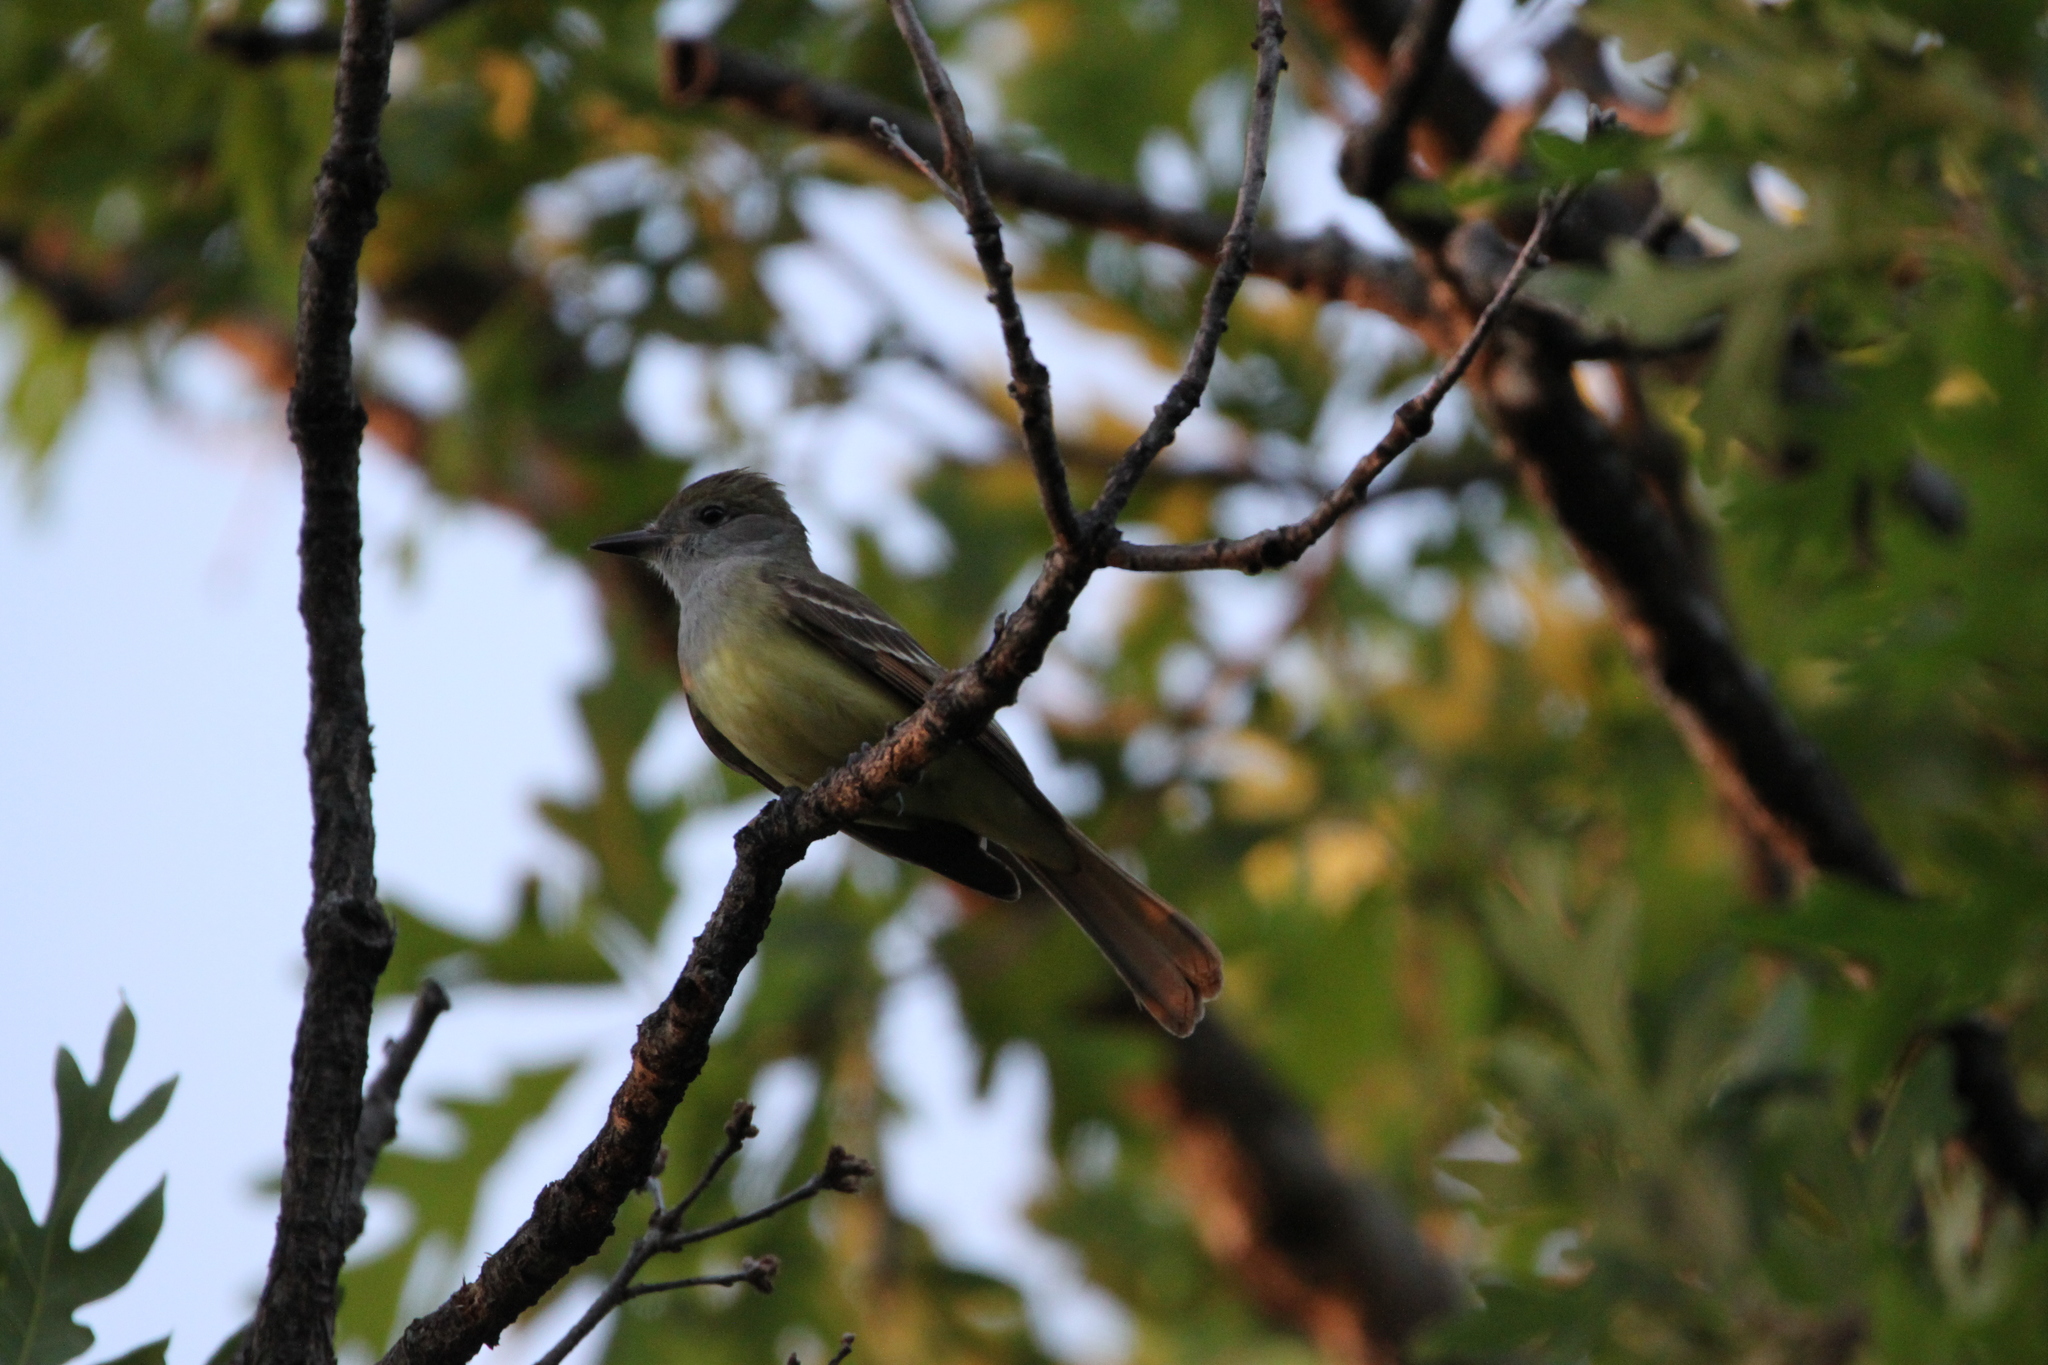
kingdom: Animalia
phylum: Chordata
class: Aves
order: Passeriformes
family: Tyrannidae
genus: Myiarchus
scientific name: Myiarchus crinitus
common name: Great crested flycatcher
